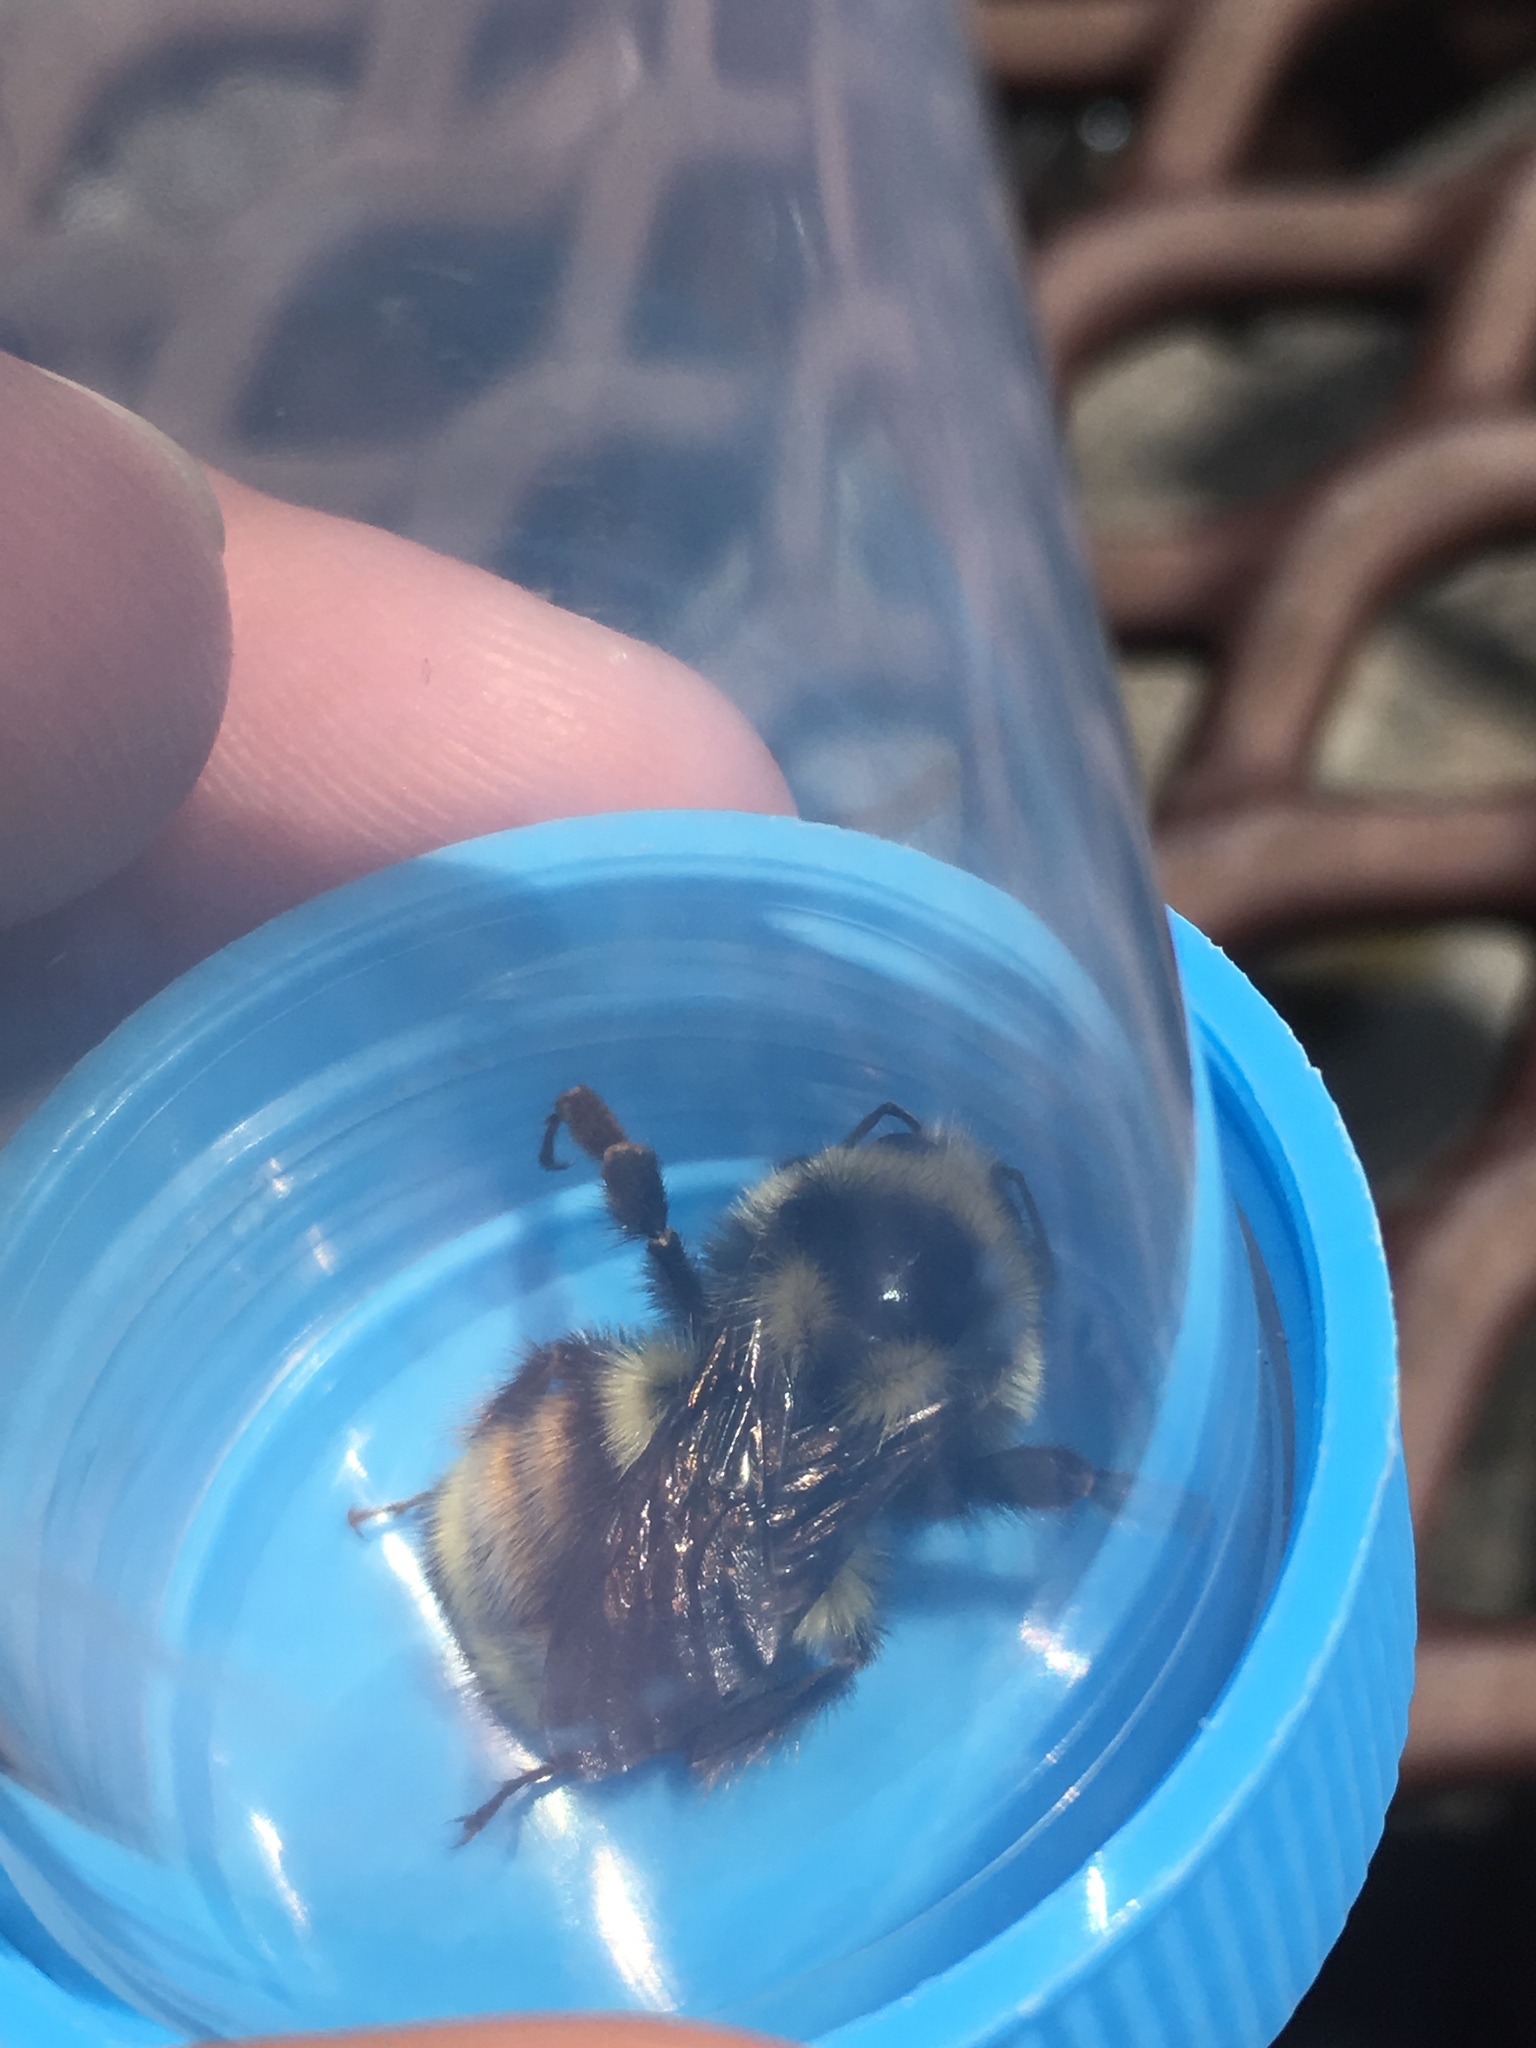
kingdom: Animalia
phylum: Arthropoda
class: Insecta
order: Hymenoptera
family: Apidae
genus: Bombus
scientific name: Bombus vancouverensis
